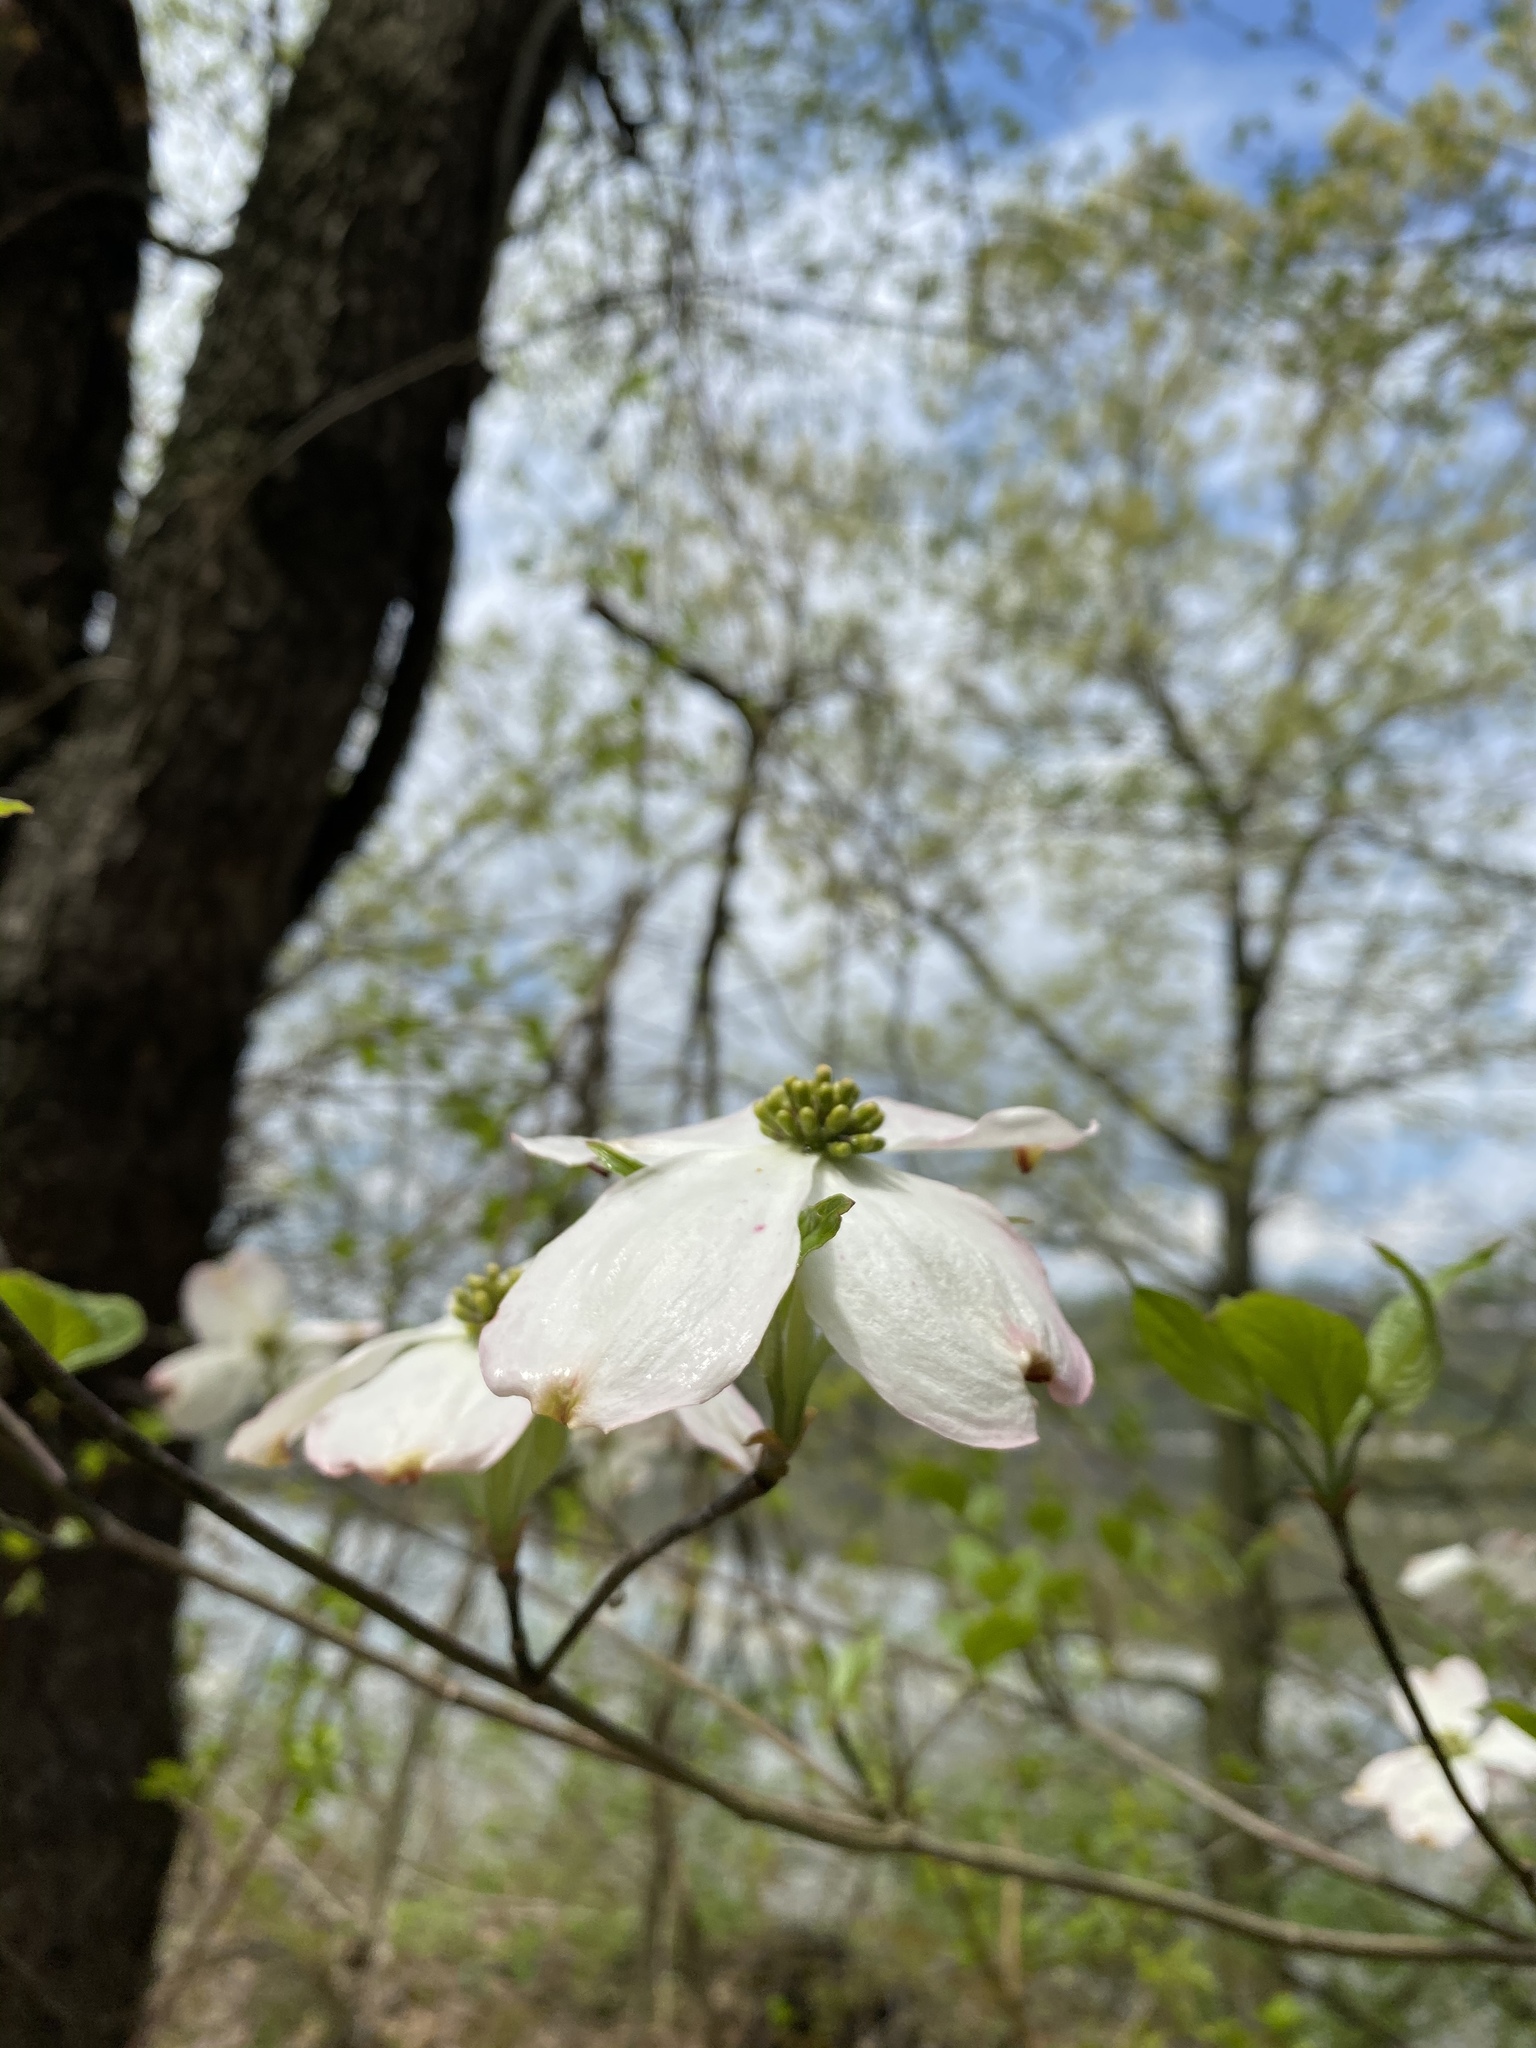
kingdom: Plantae
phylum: Tracheophyta
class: Magnoliopsida
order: Cornales
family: Cornaceae
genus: Cornus
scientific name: Cornus florida
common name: Flowering dogwood
